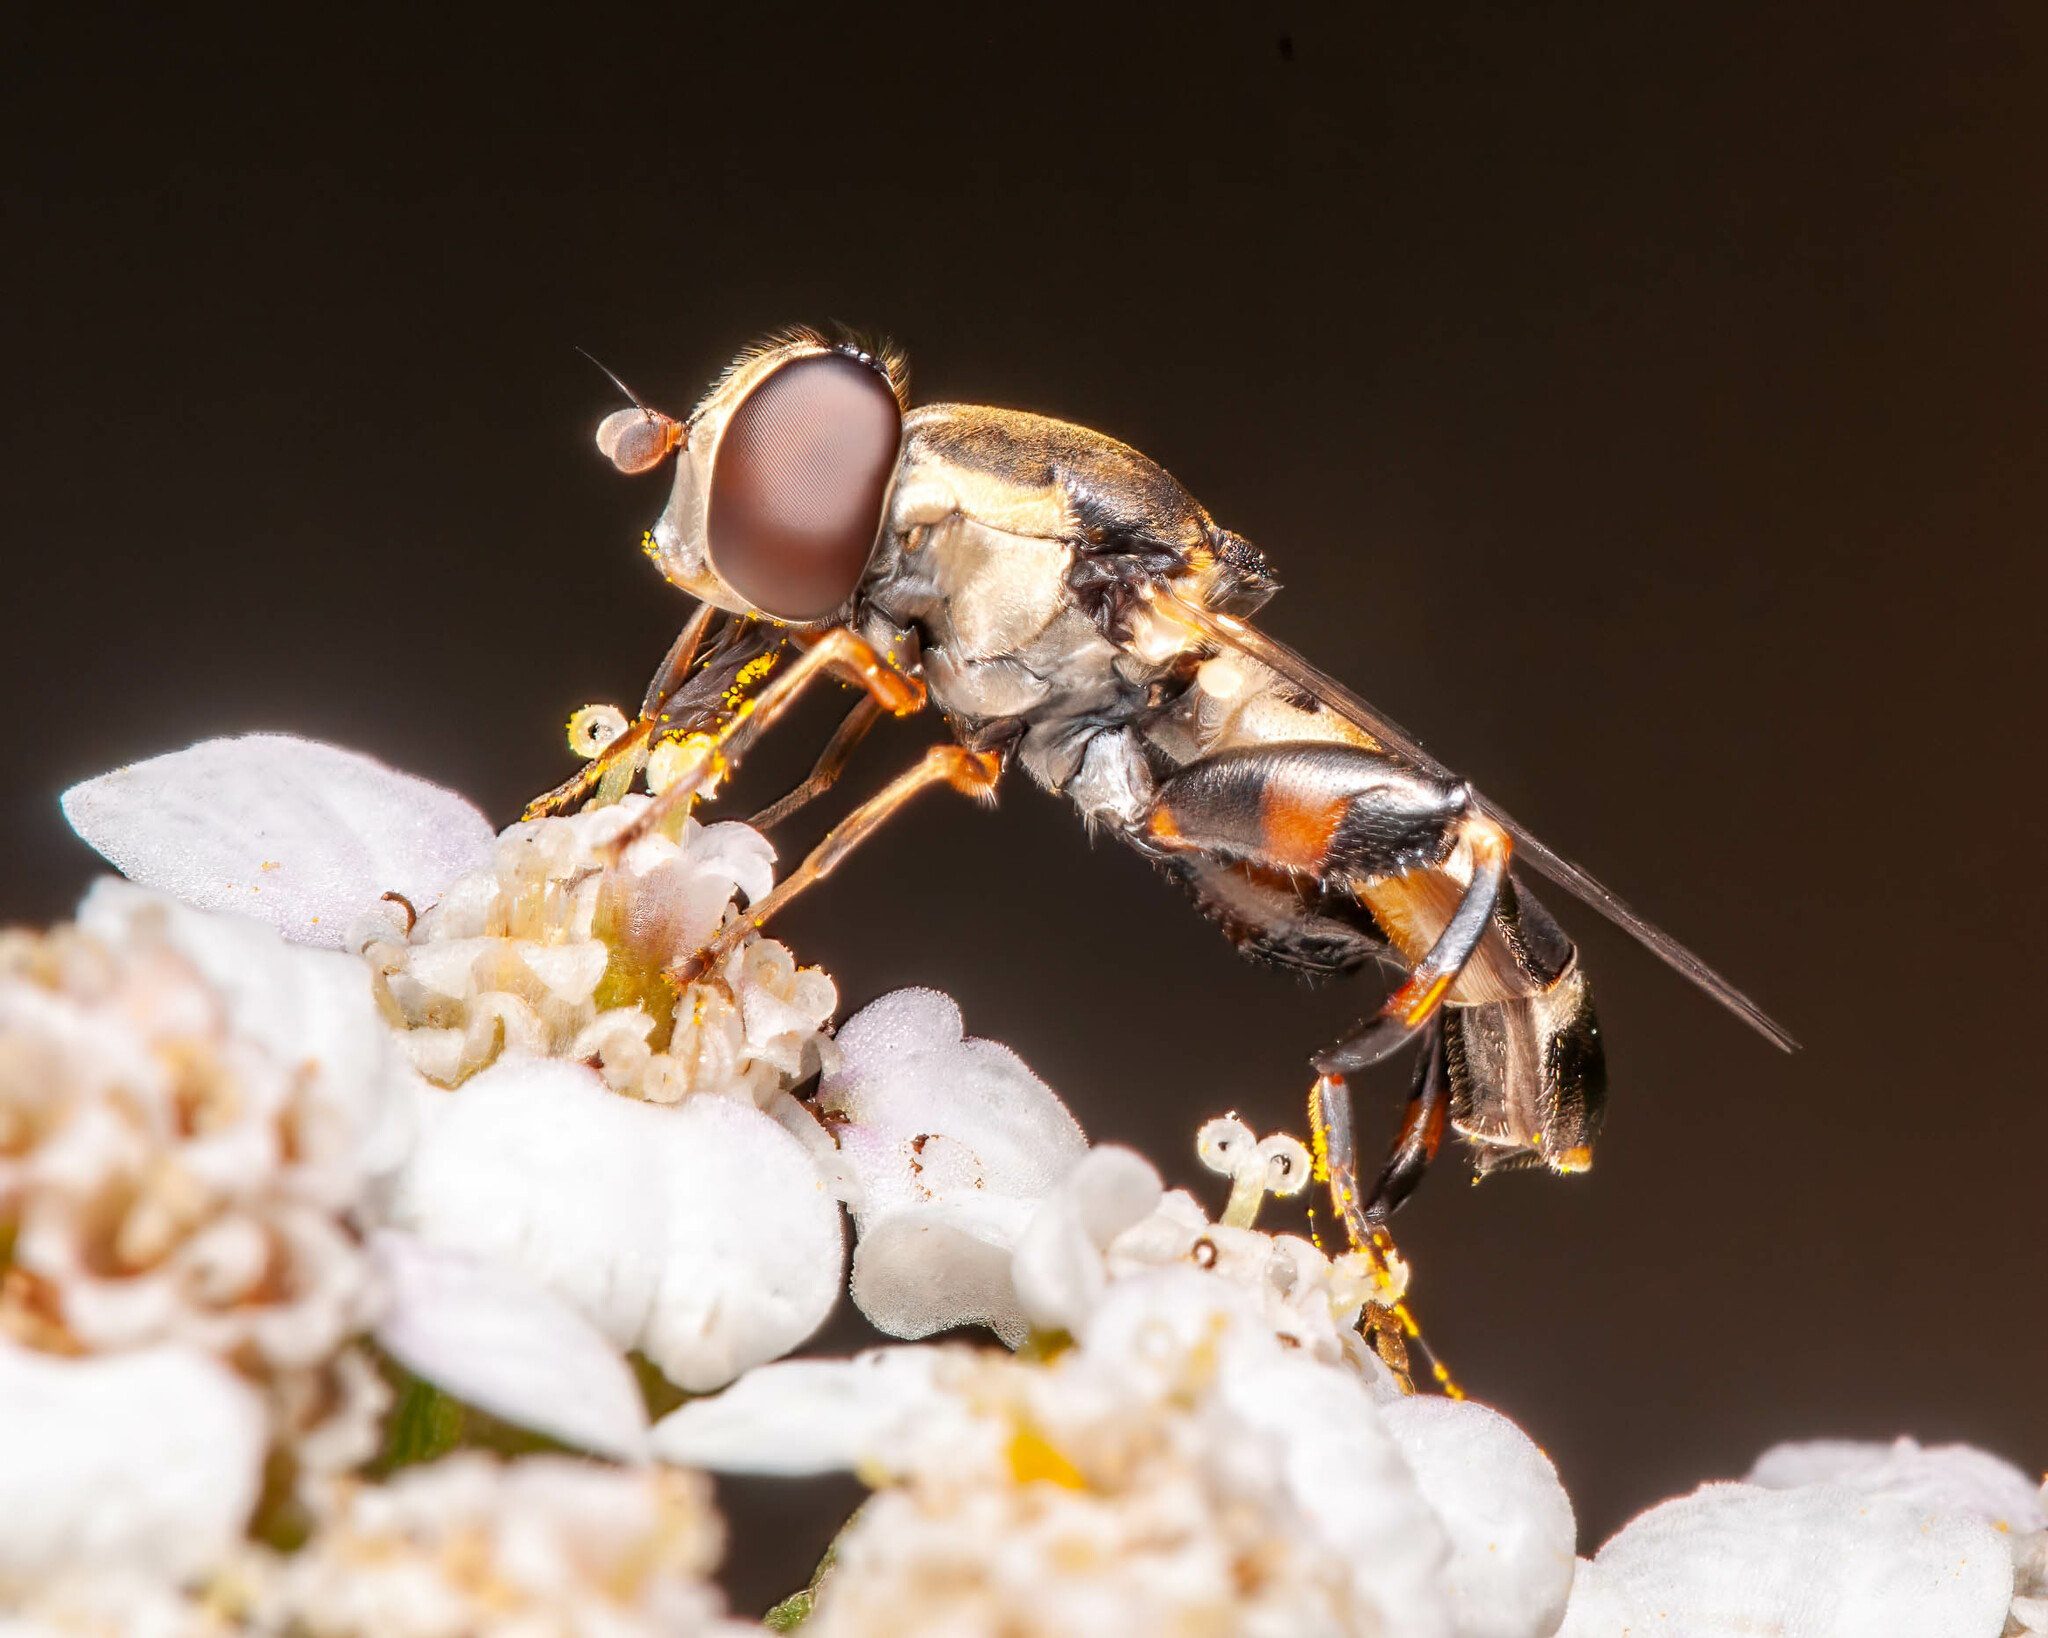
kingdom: Animalia
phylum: Arthropoda
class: Insecta
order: Diptera
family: Syrphidae
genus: Syritta
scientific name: Syritta pipiens
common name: Hover fly
